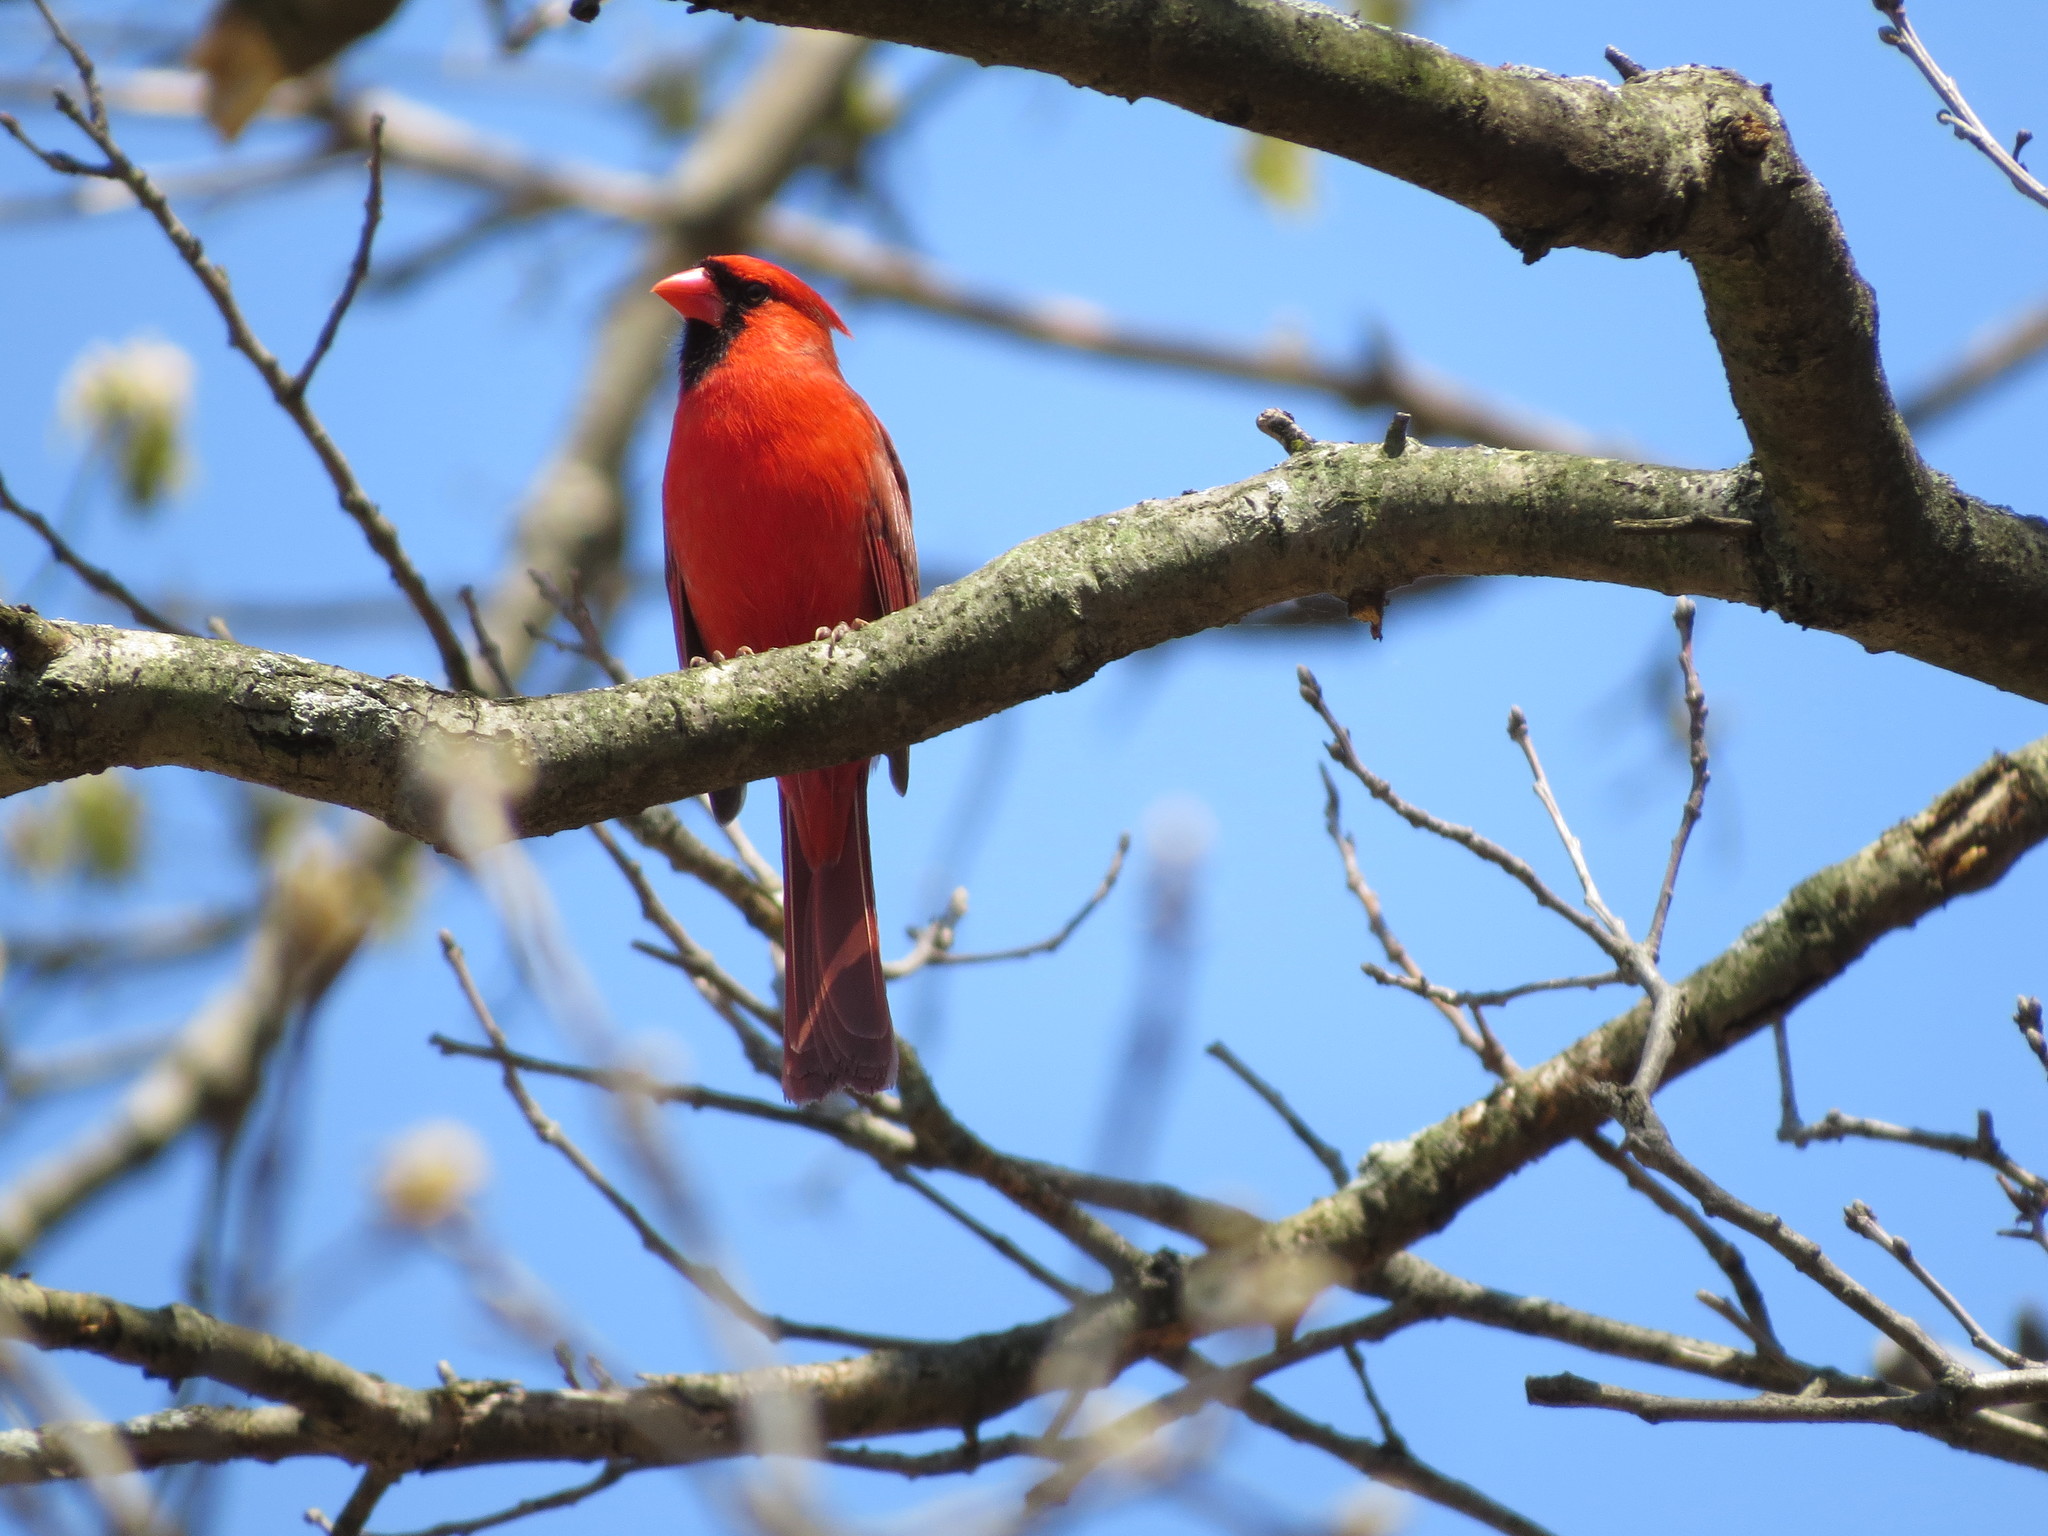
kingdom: Animalia
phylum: Chordata
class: Aves
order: Passeriformes
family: Cardinalidae
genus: Cardinalis
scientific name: Cardinalis cardinalis
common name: Northern cardinal
